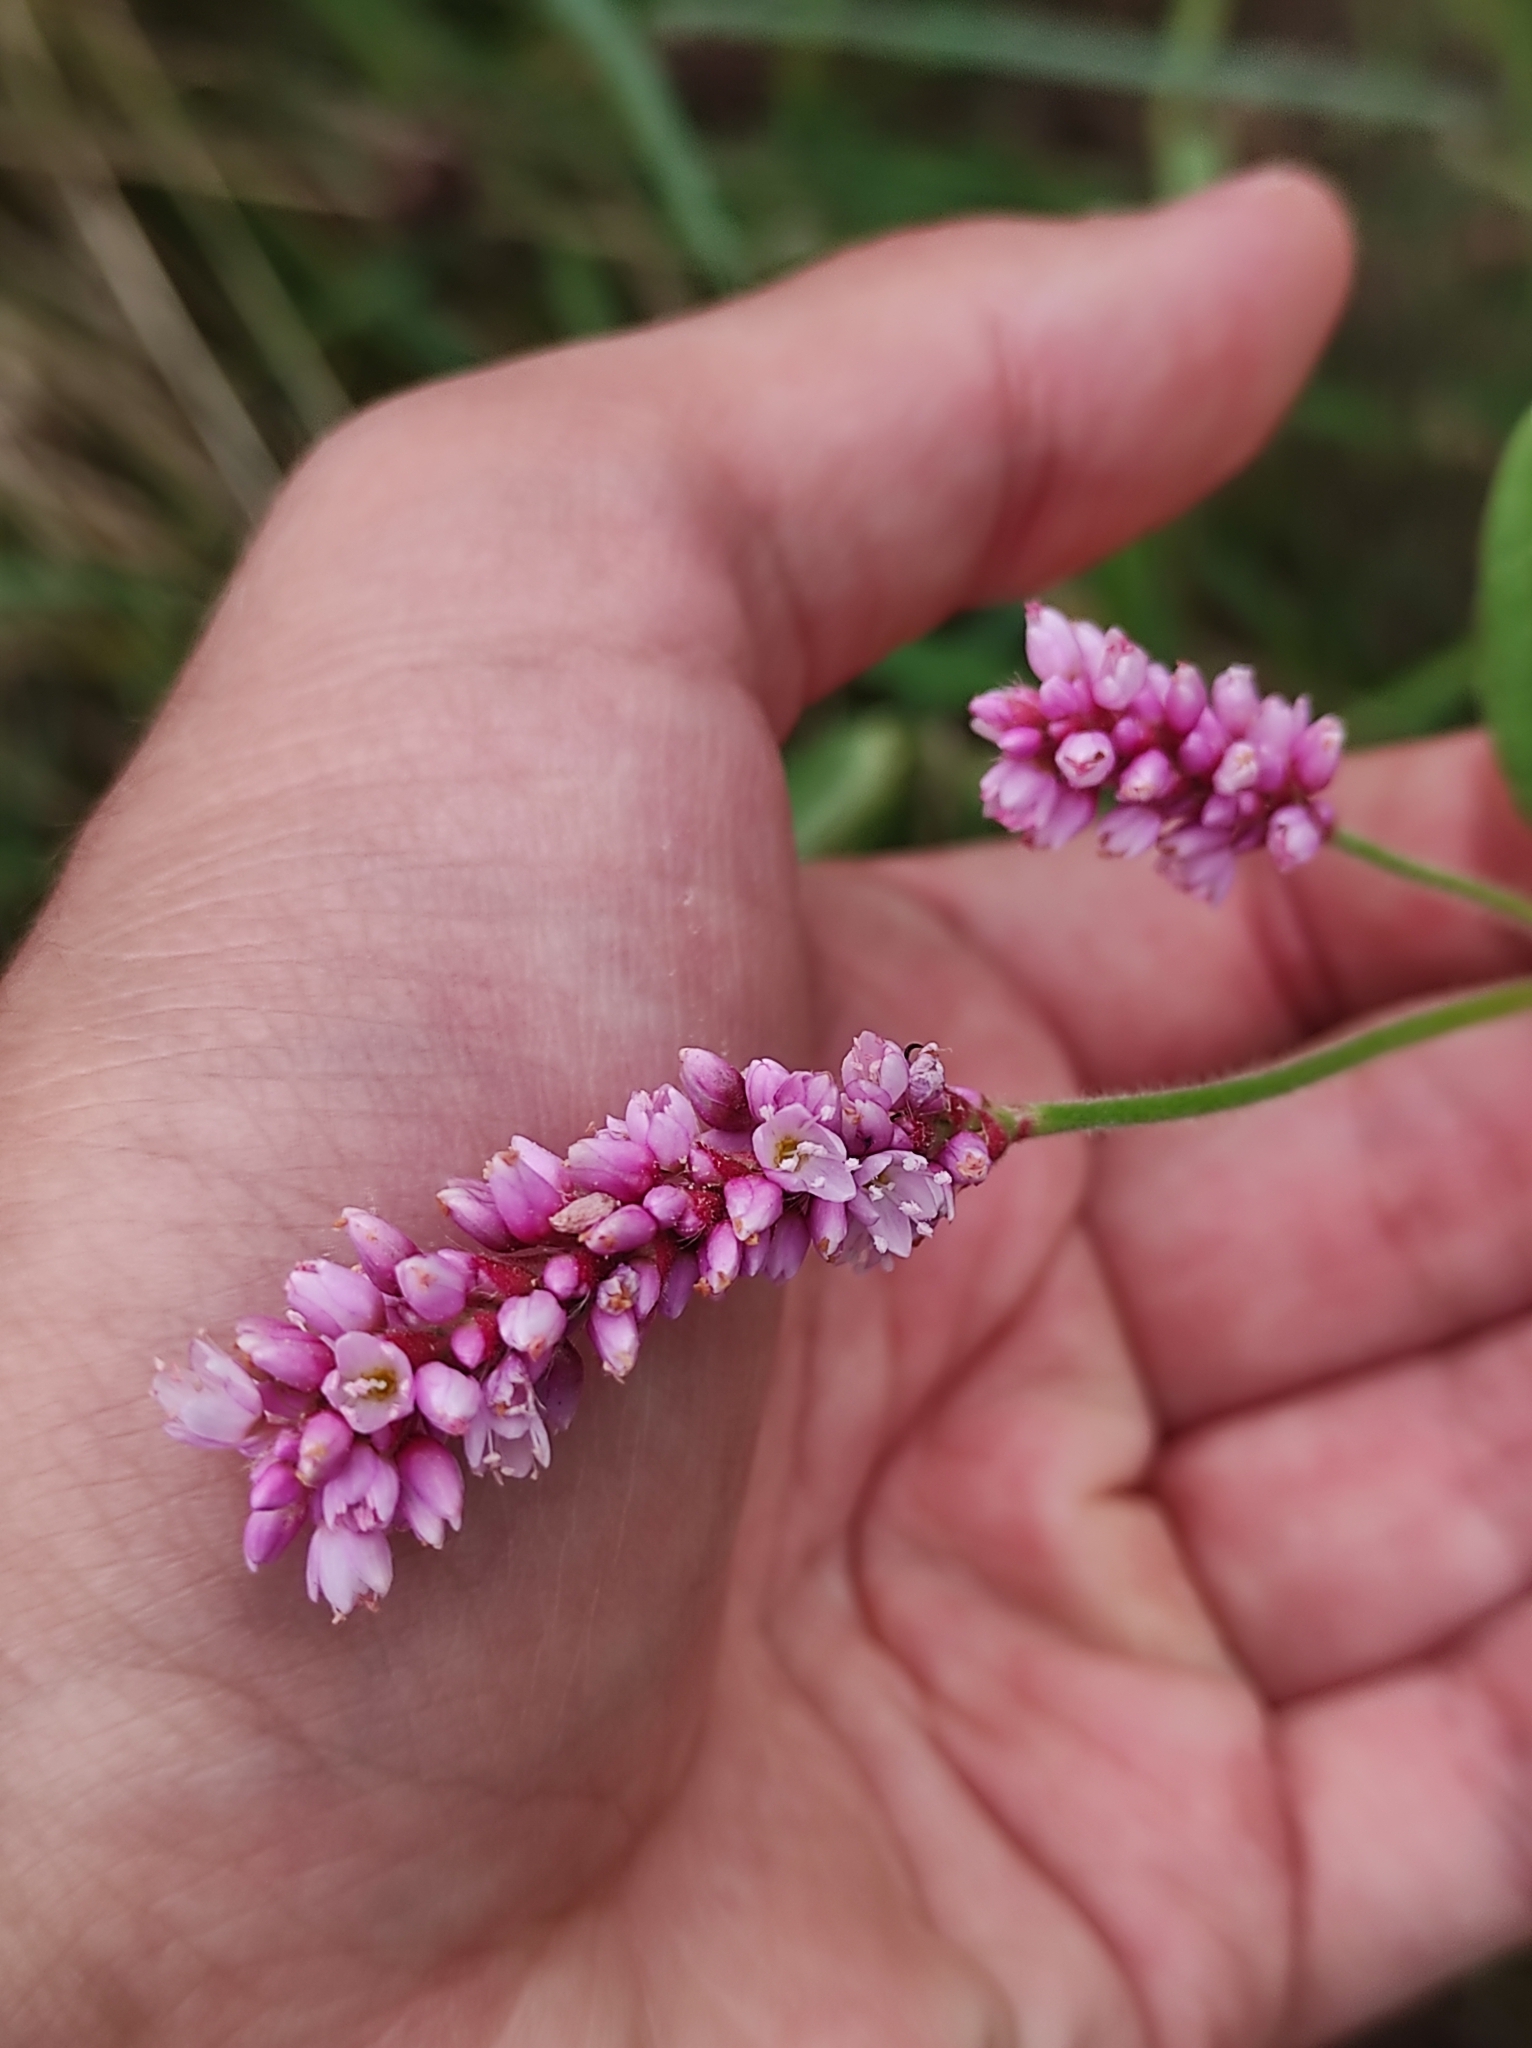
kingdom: Plantae
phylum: Tracheophyta
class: Magnoliopsida
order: Caryophyllales
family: Polygonaceae
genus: Persicaria
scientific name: Persicaria orientalis
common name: Kiss-me-over-the-garden-gate
